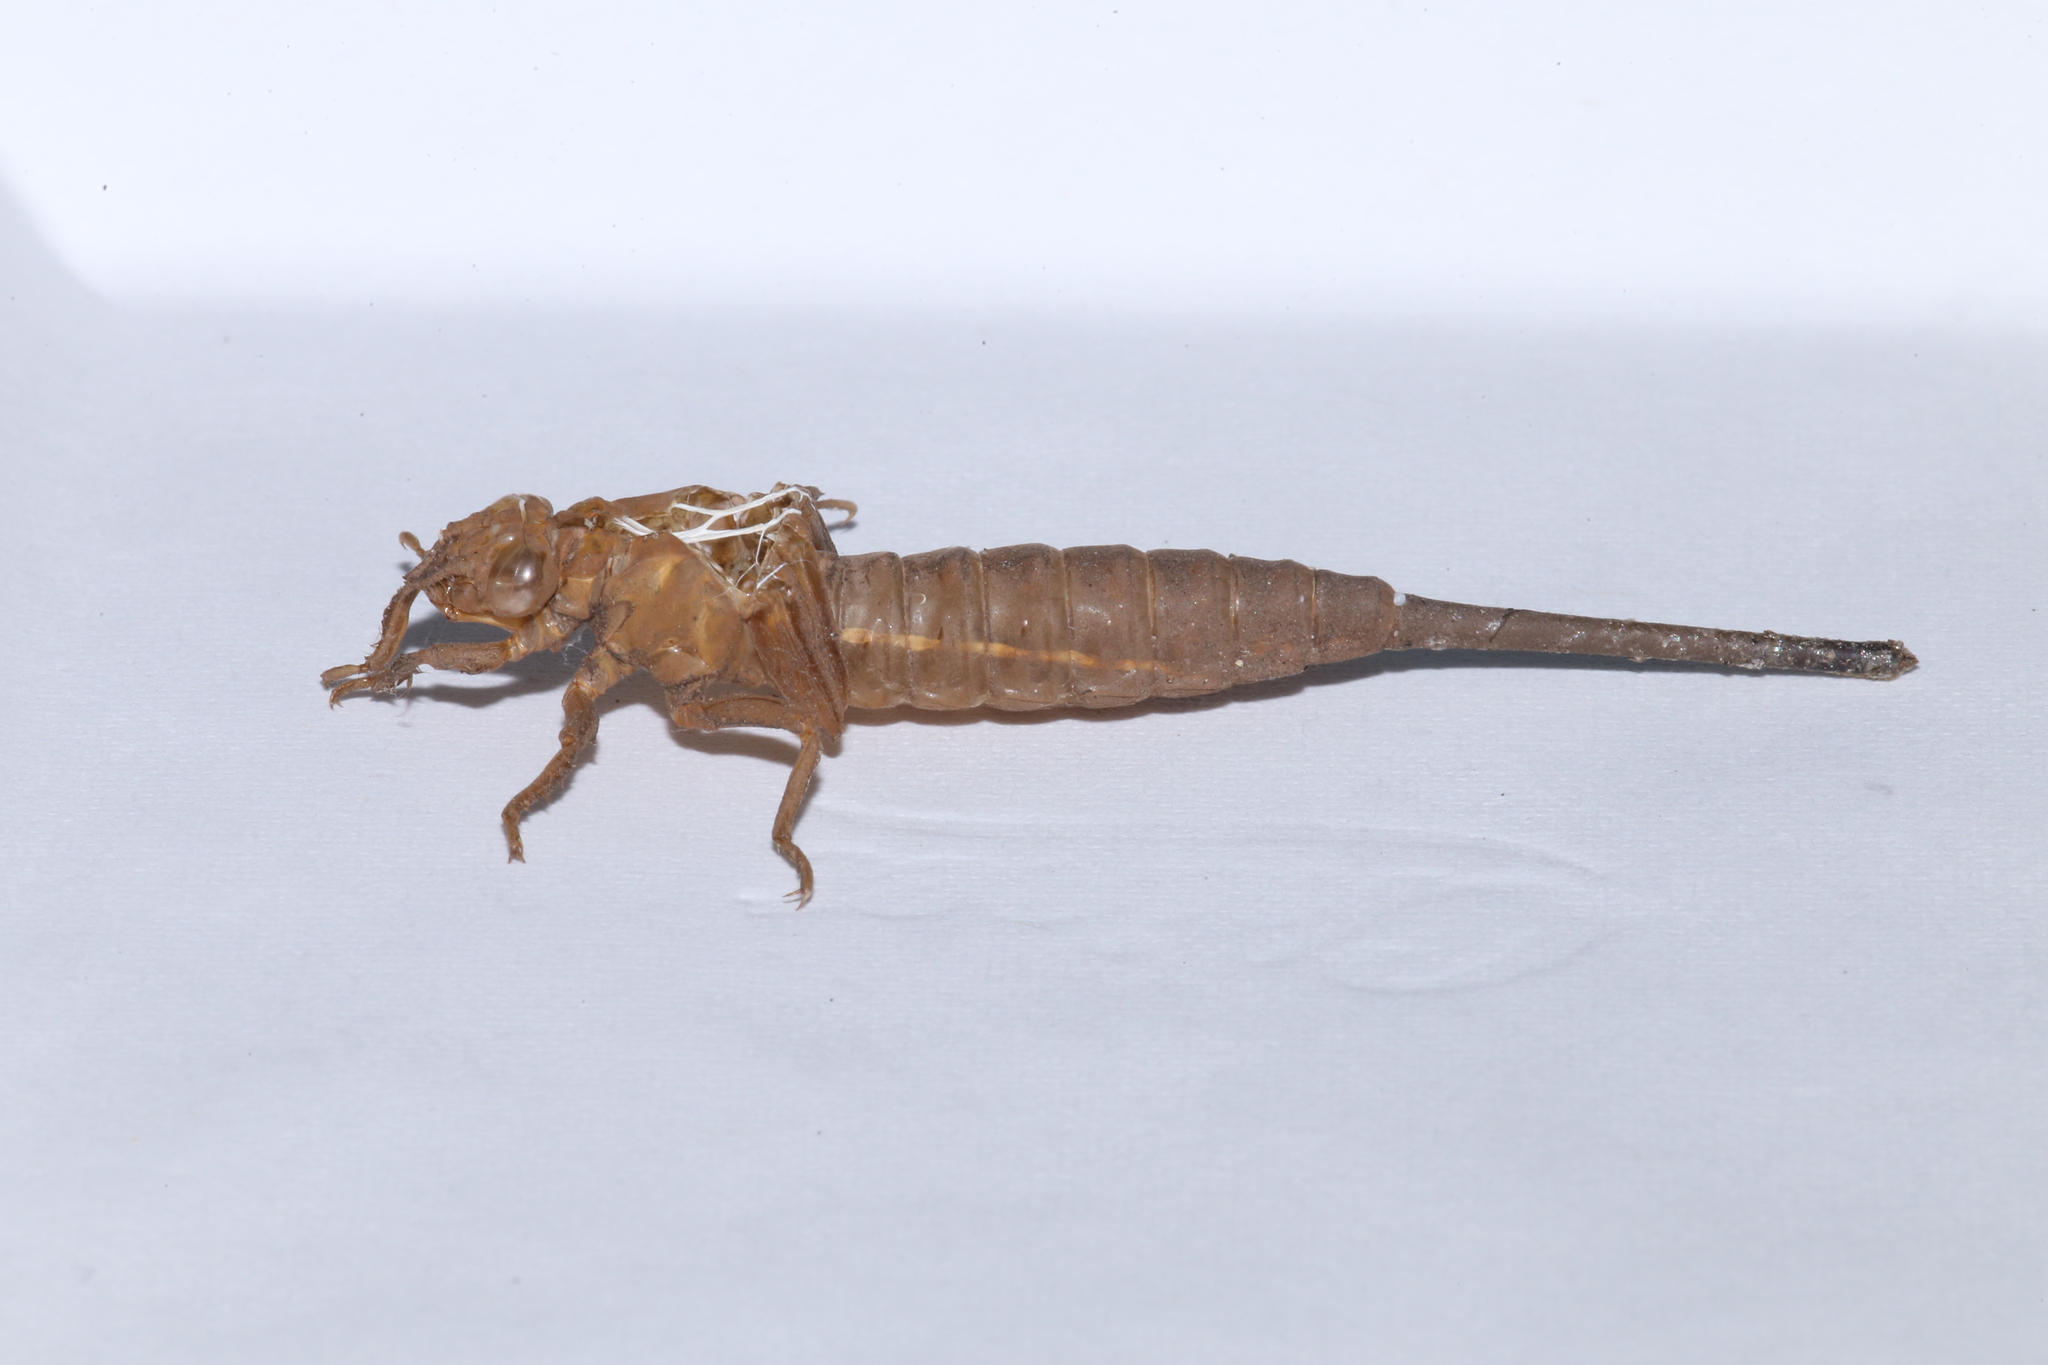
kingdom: Animalia
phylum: Arthropoda
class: Insecta
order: Odonata
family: Gomphidae
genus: Aphylla
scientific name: Aphylla williamsoni
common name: Two-striped forceptail
